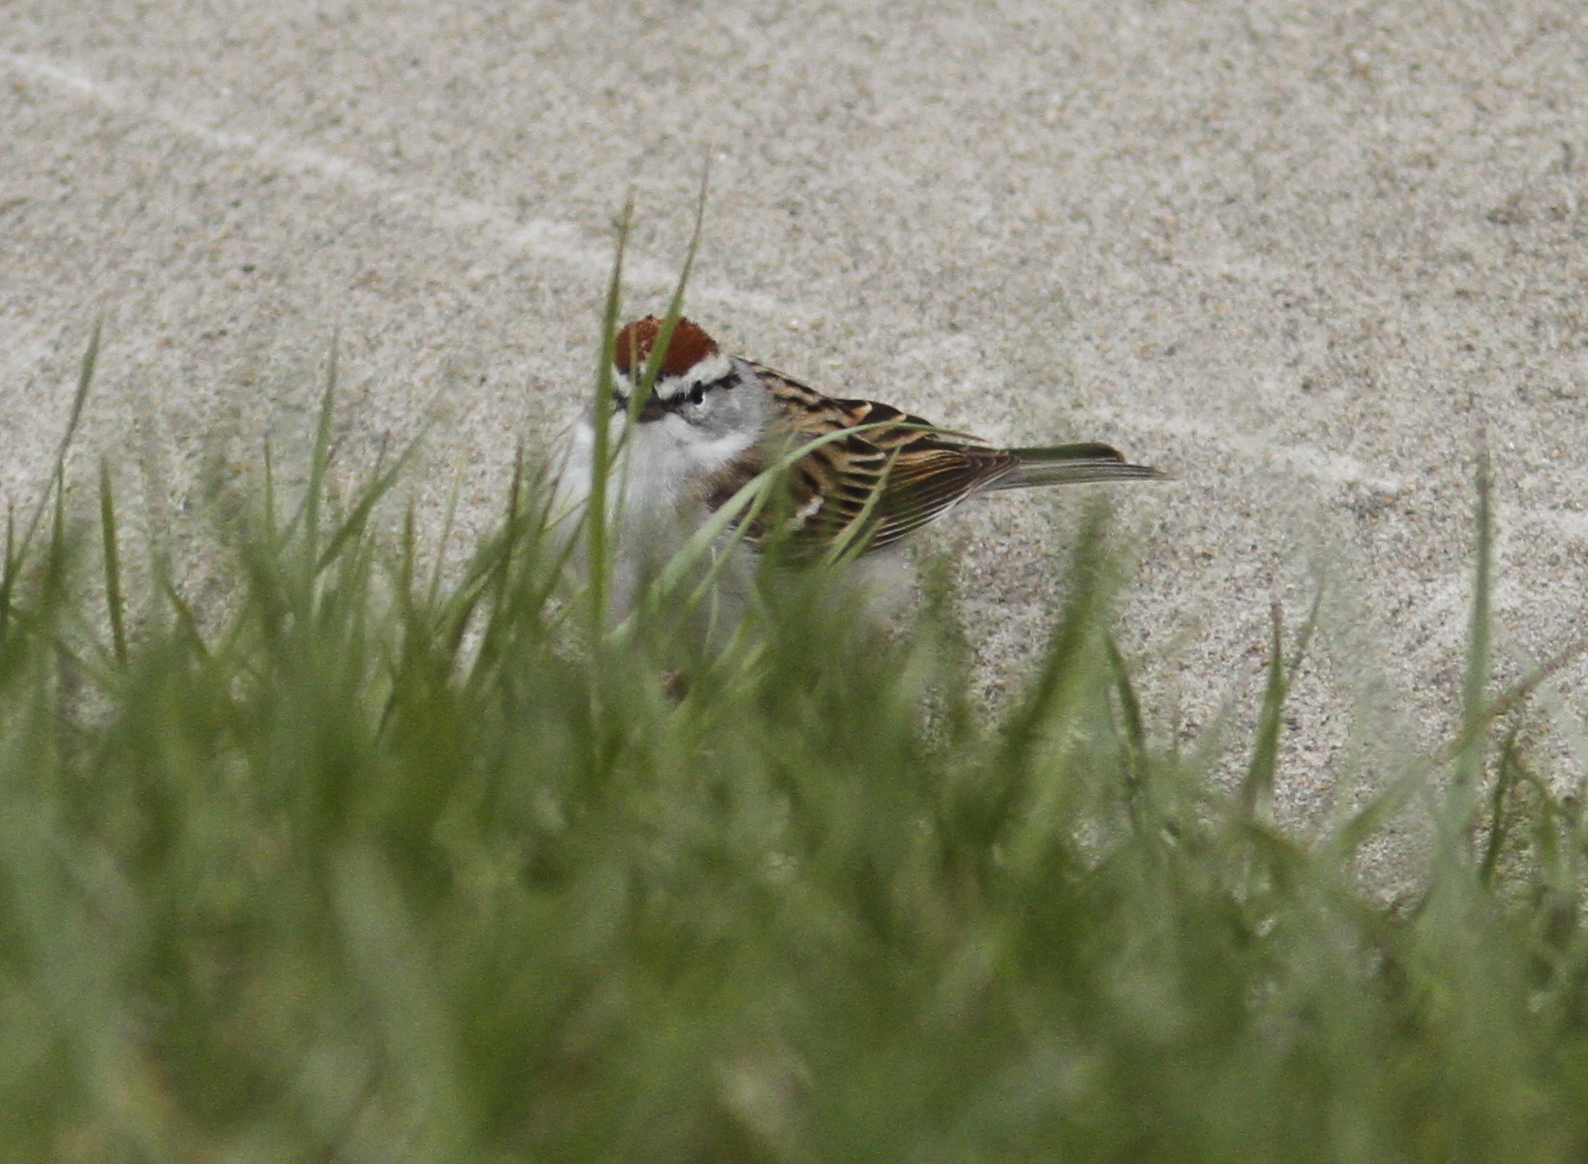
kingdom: Animalia
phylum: Chordata
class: Aves
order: Passeriformes
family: Passerellidae
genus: Spizella
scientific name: Spizella passerina
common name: Chipping sparrow
